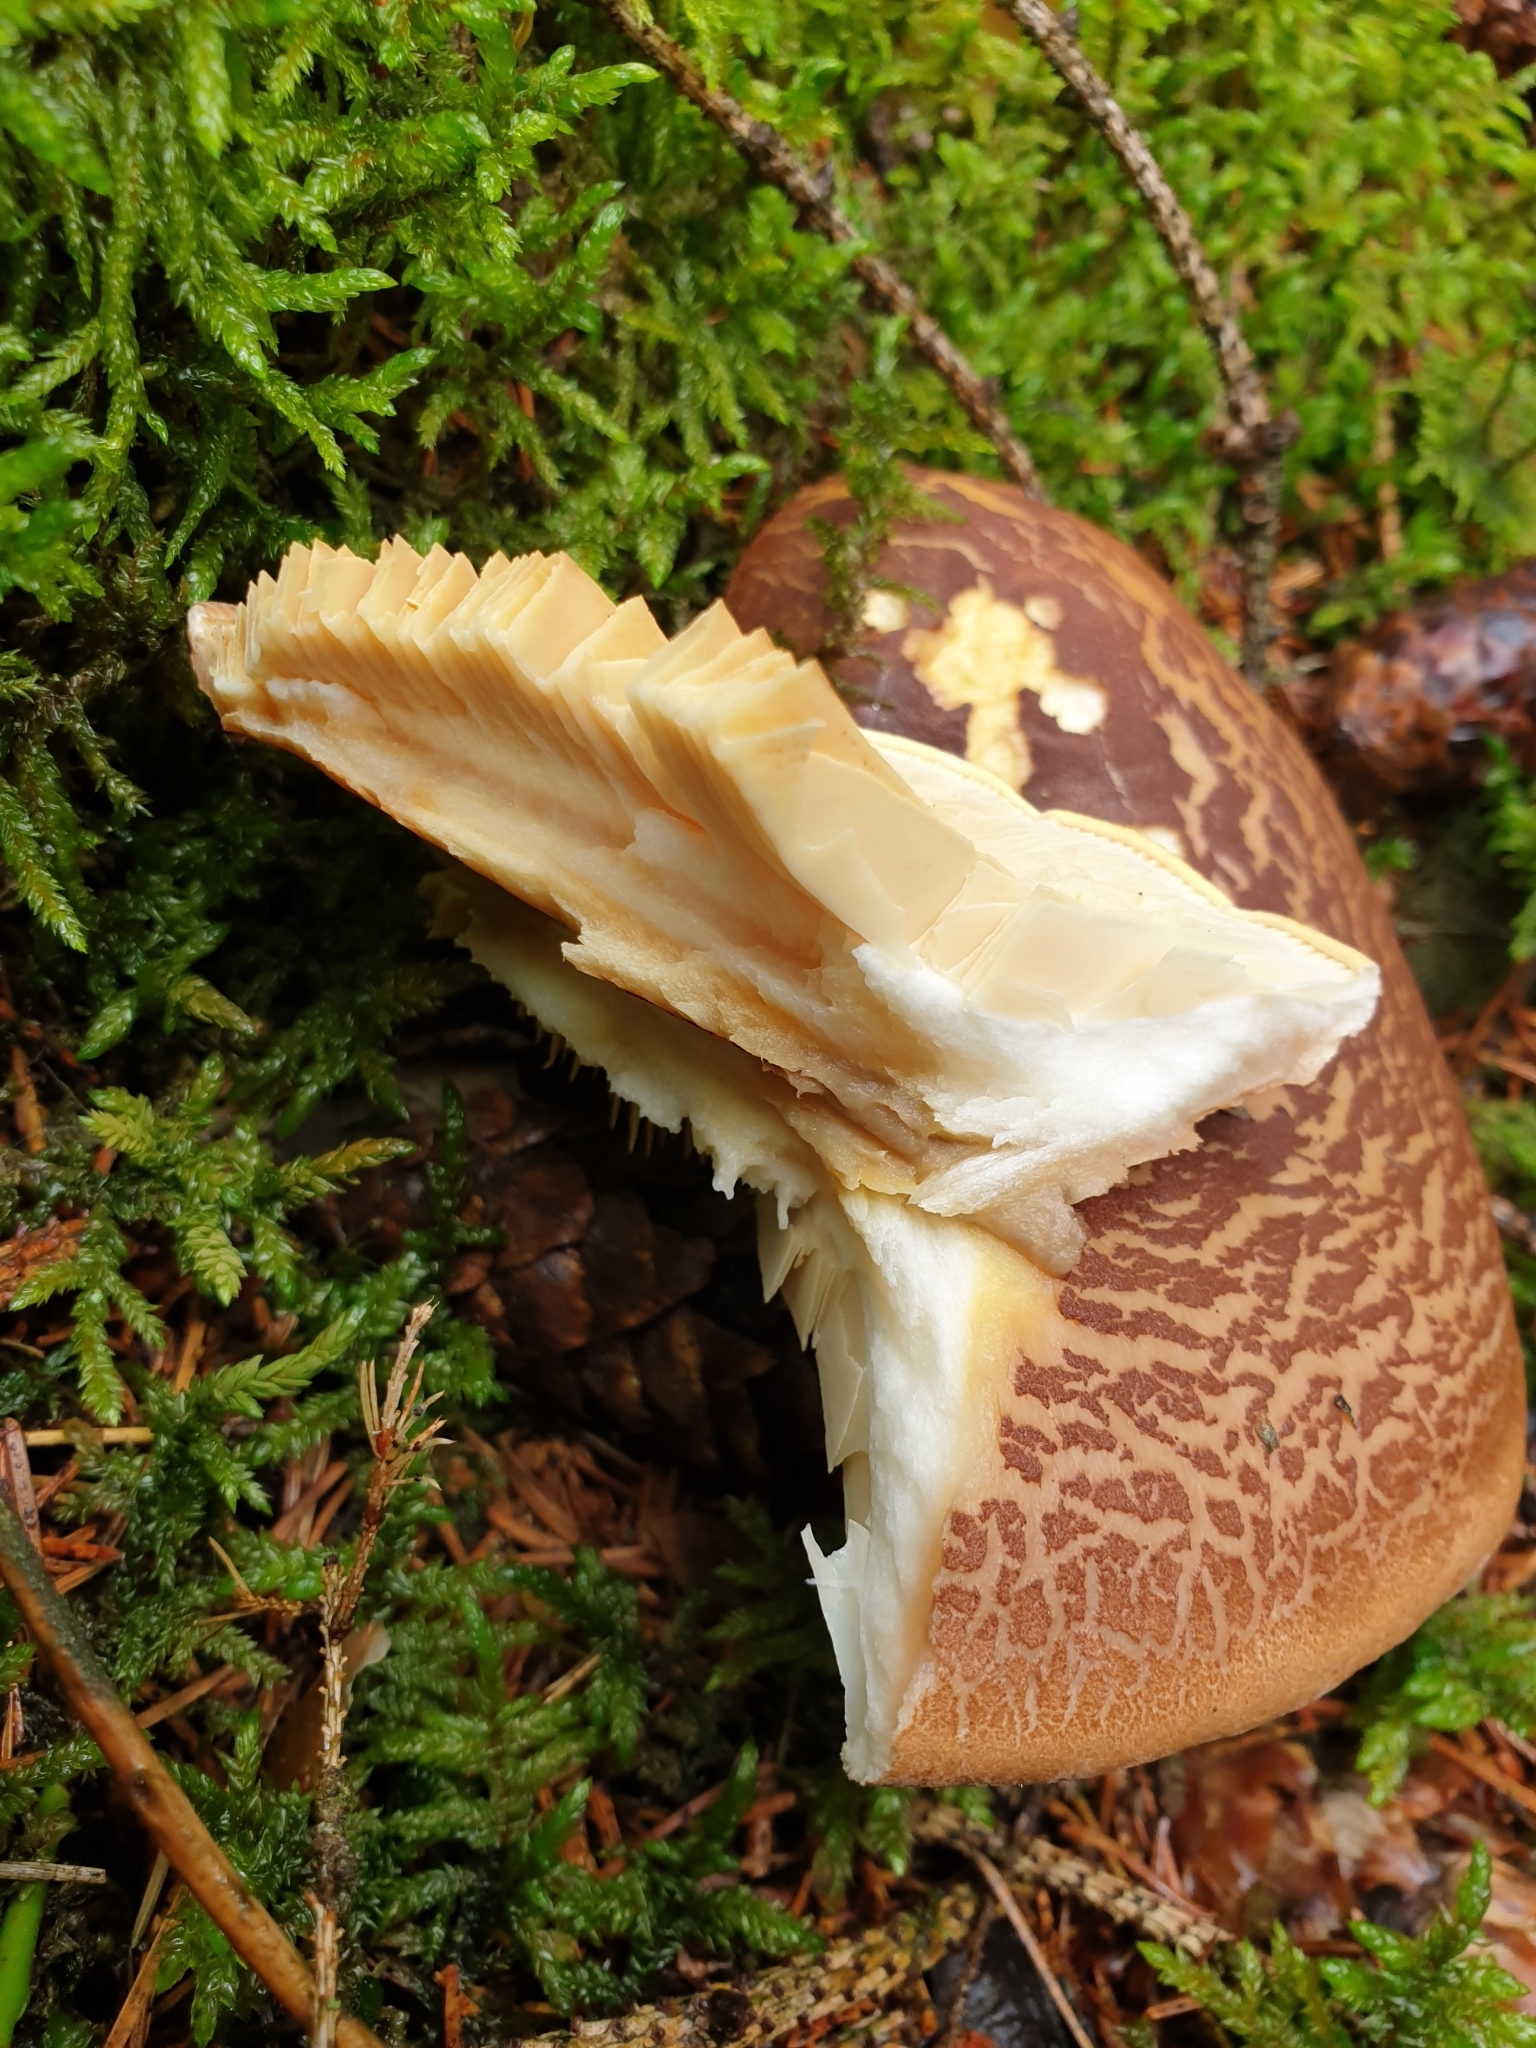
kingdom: Fungi
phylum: Basidiomycota
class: Agaricomycetes
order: Boletales
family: Tapinellaceae
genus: Tapinella
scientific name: Tapinella atrotomentosa
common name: Velvet rollrim
